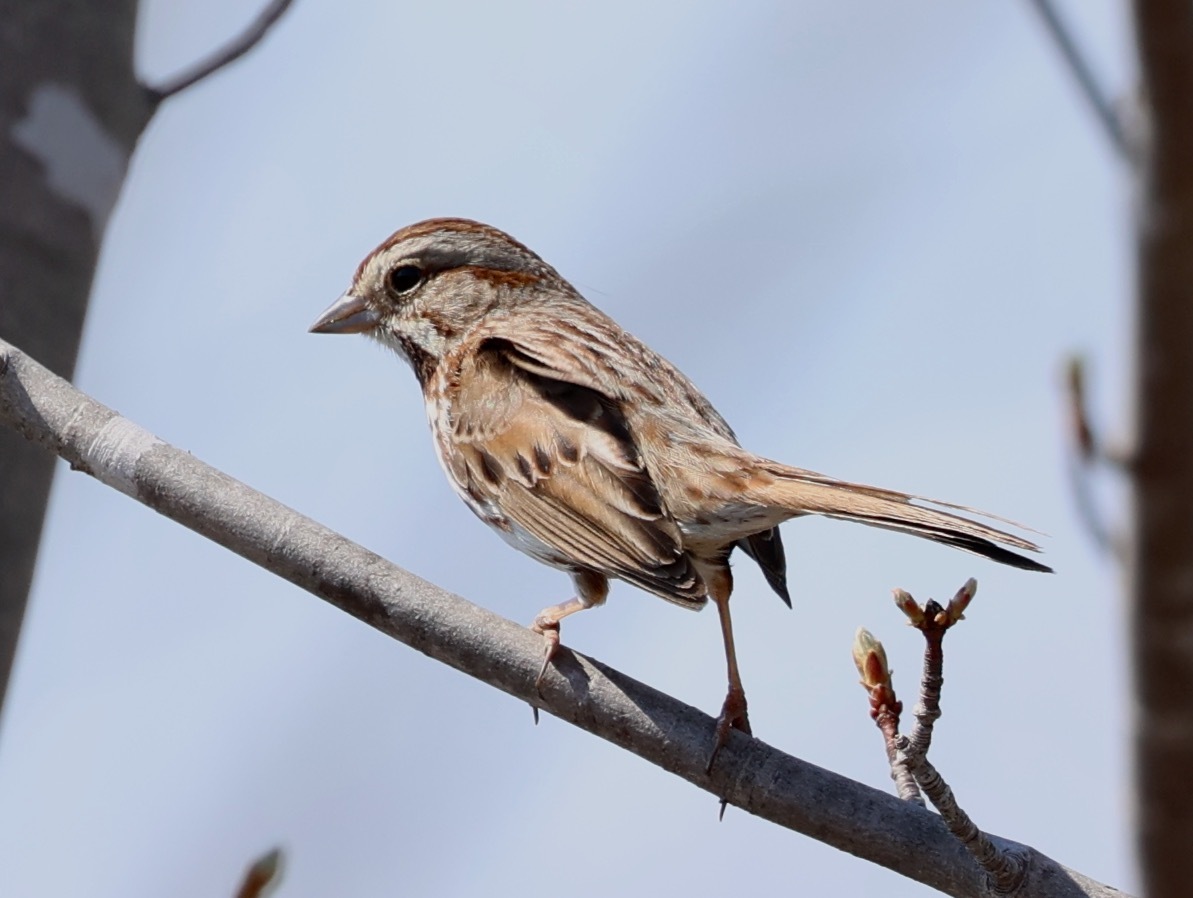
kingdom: Animalia
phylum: Chordata
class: Aves
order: Passeriformes
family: Passerellidae
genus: Melospiza
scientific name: Melospiza melodia
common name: Song sparrow
